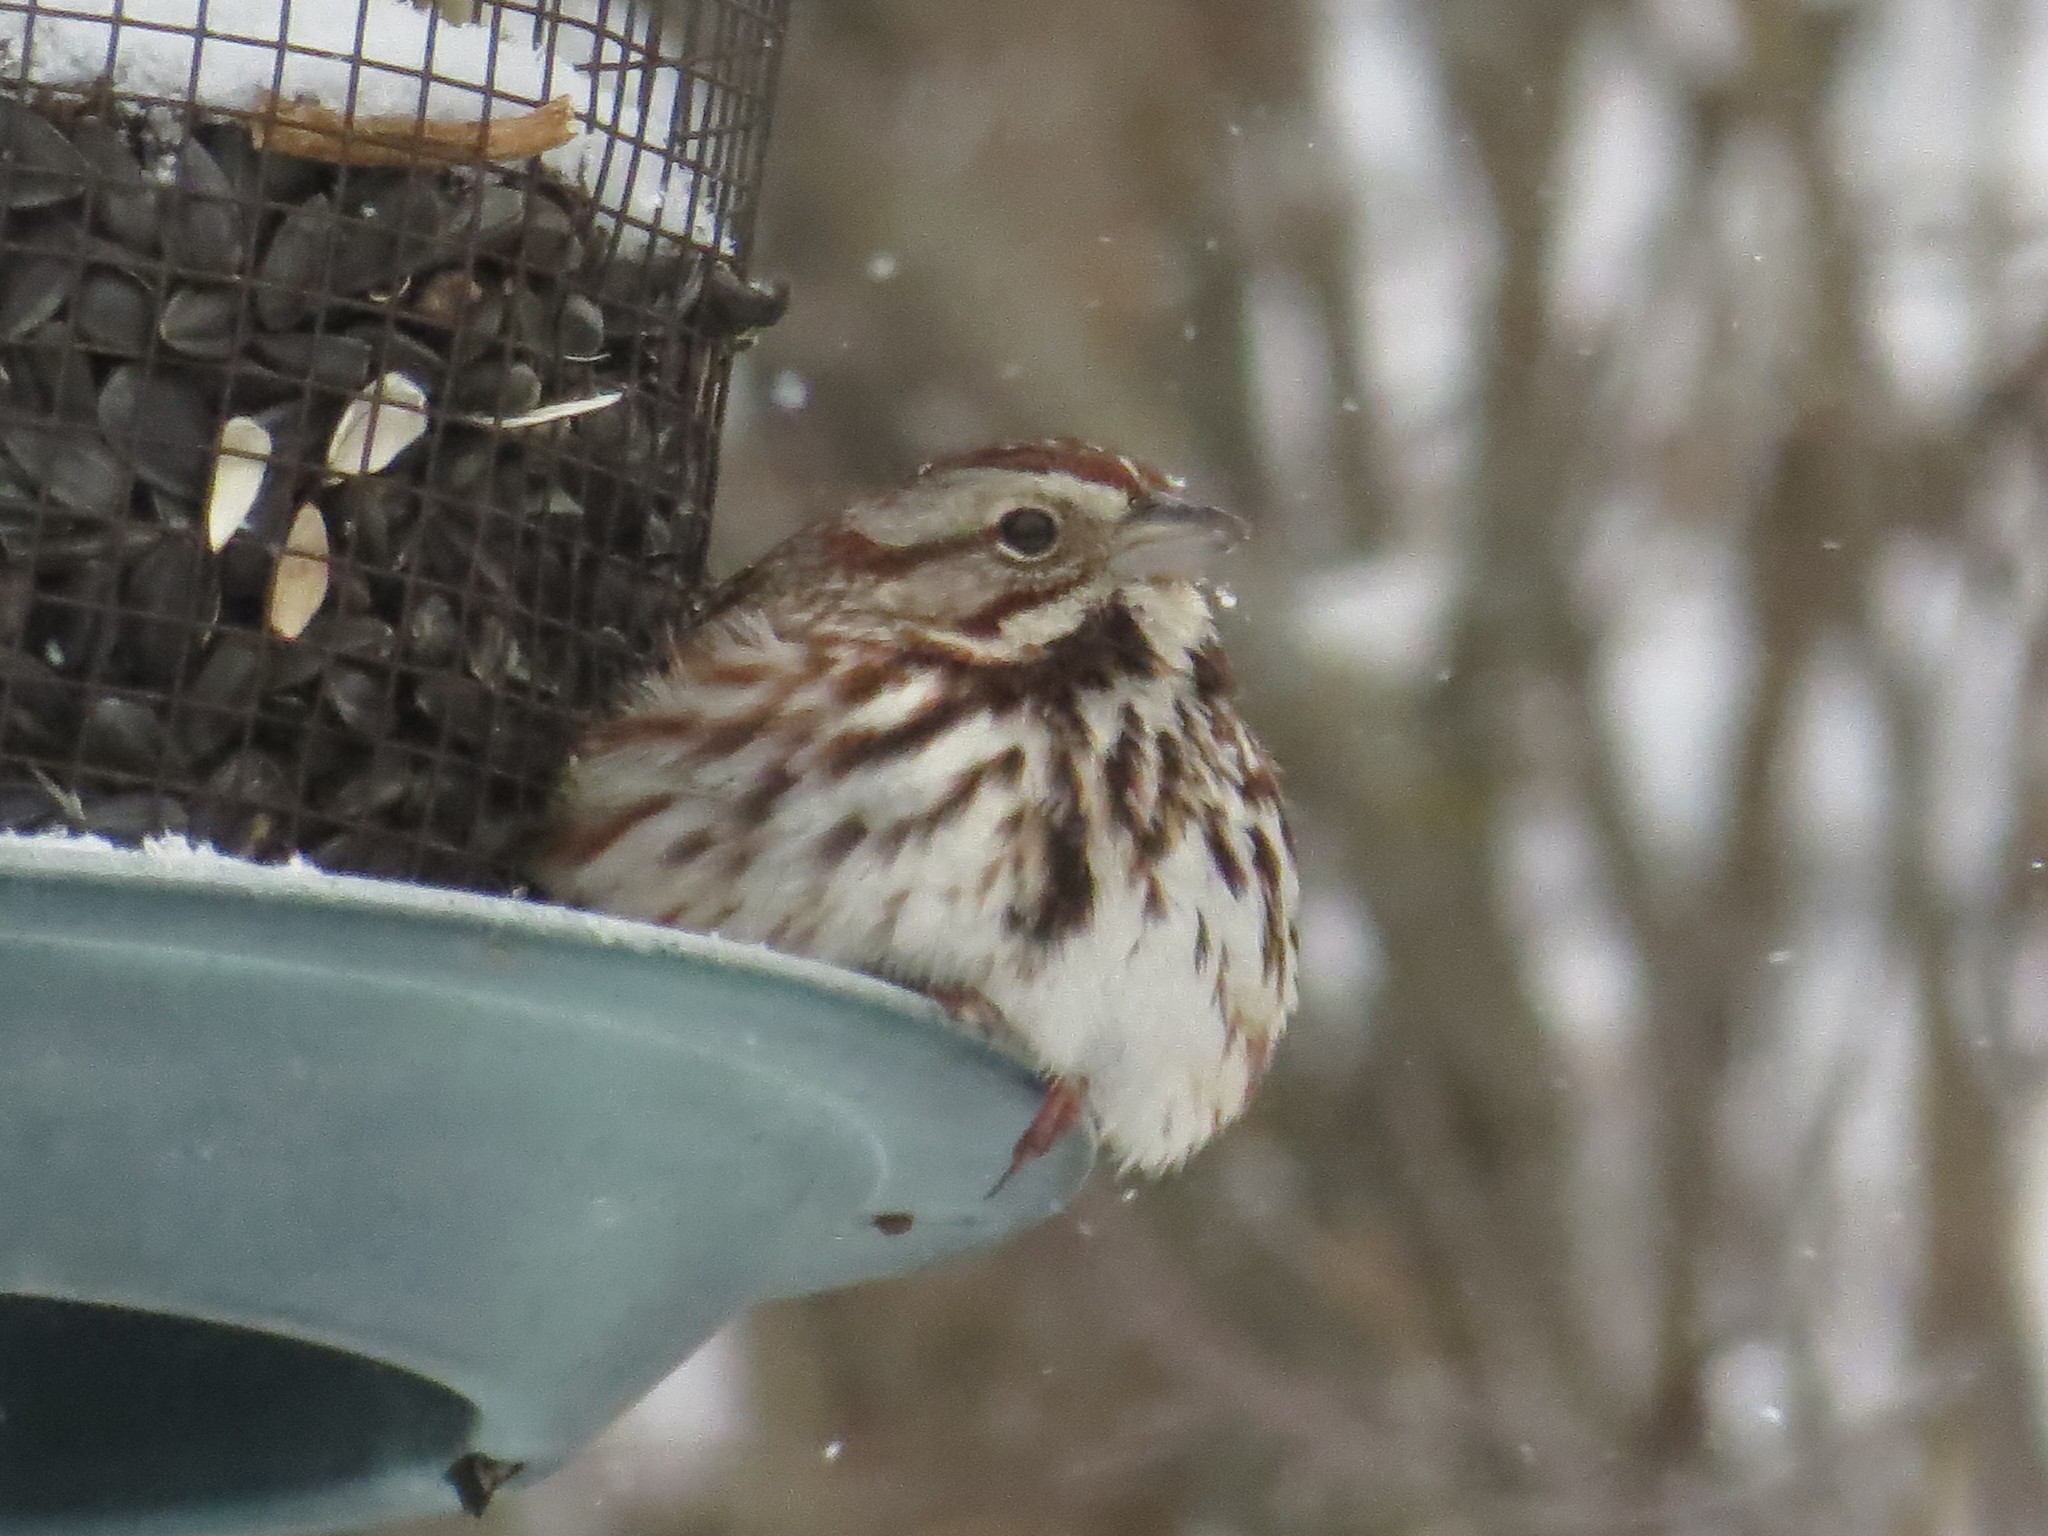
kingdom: Animalia
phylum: Chordata
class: Aves
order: Passeriformes
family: Passerellidae
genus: Melospiza
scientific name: Melospiza melodia
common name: Song sparrow
